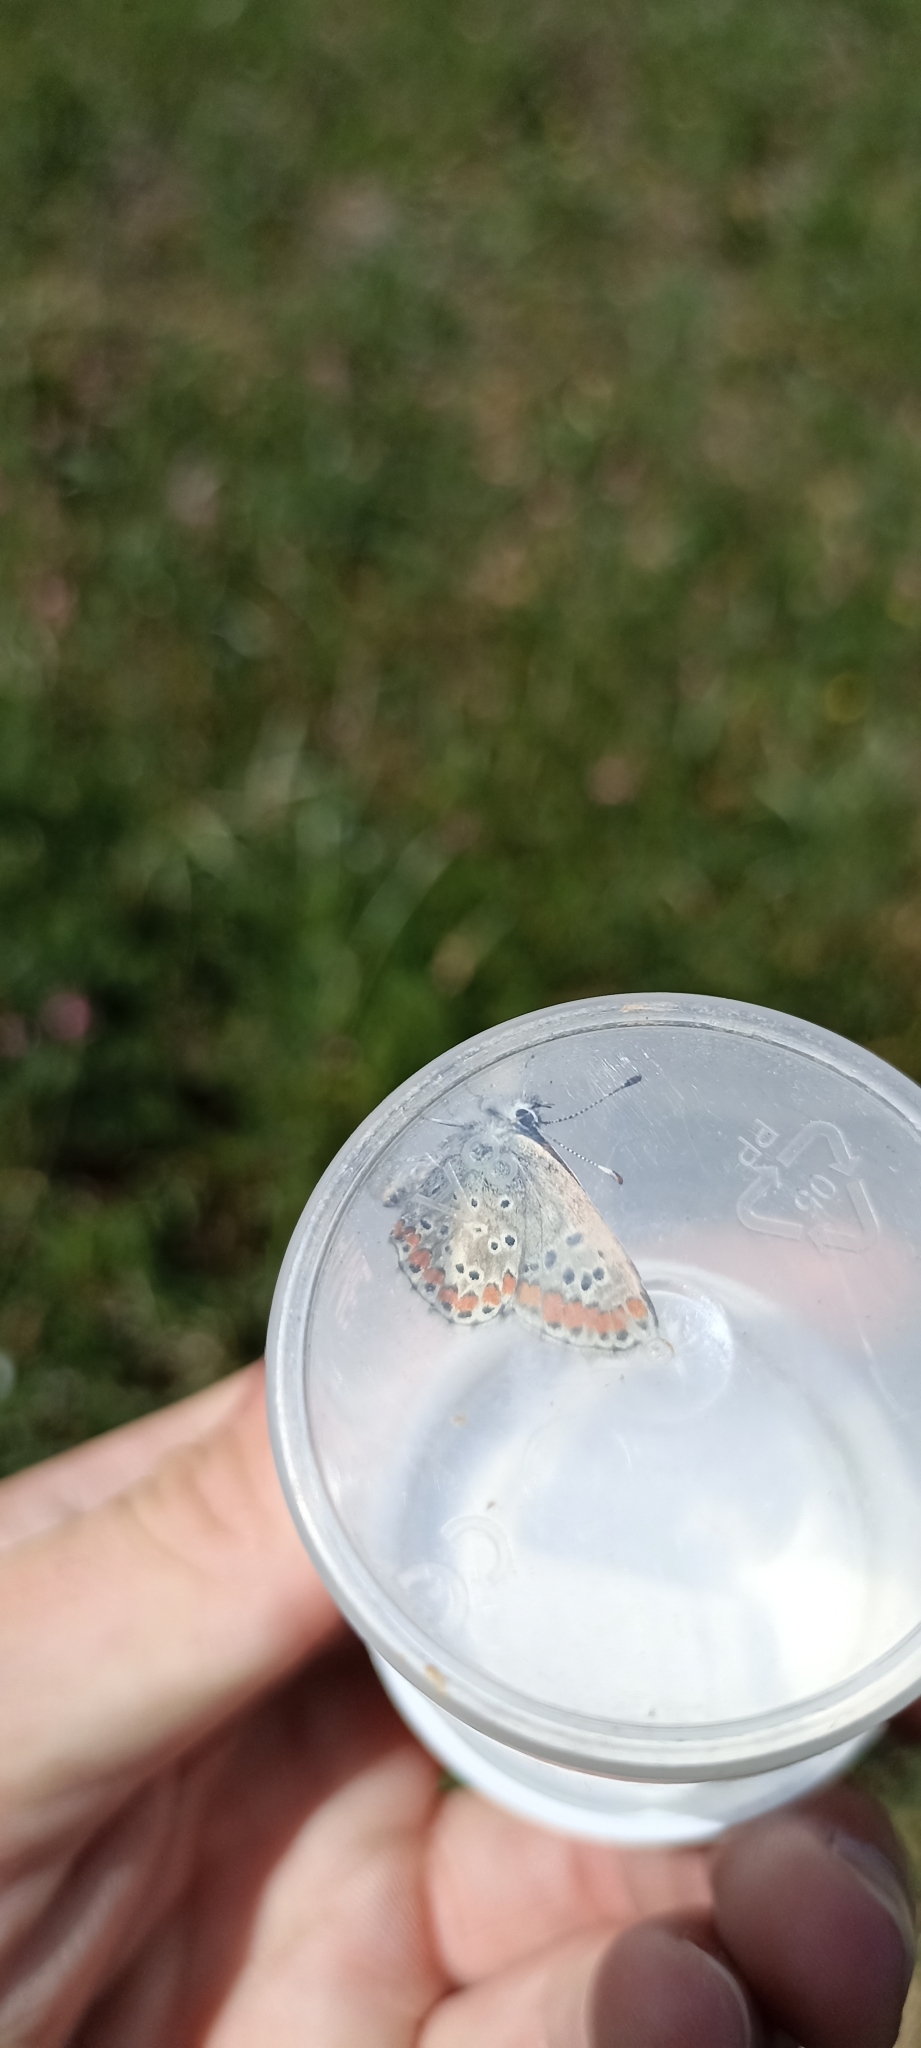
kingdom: Animalia
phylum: Arthropoda
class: Insecta
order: Lepidoptera
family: Lycaenidae
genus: Aricia
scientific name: Aricia agestis
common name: Brown argus
